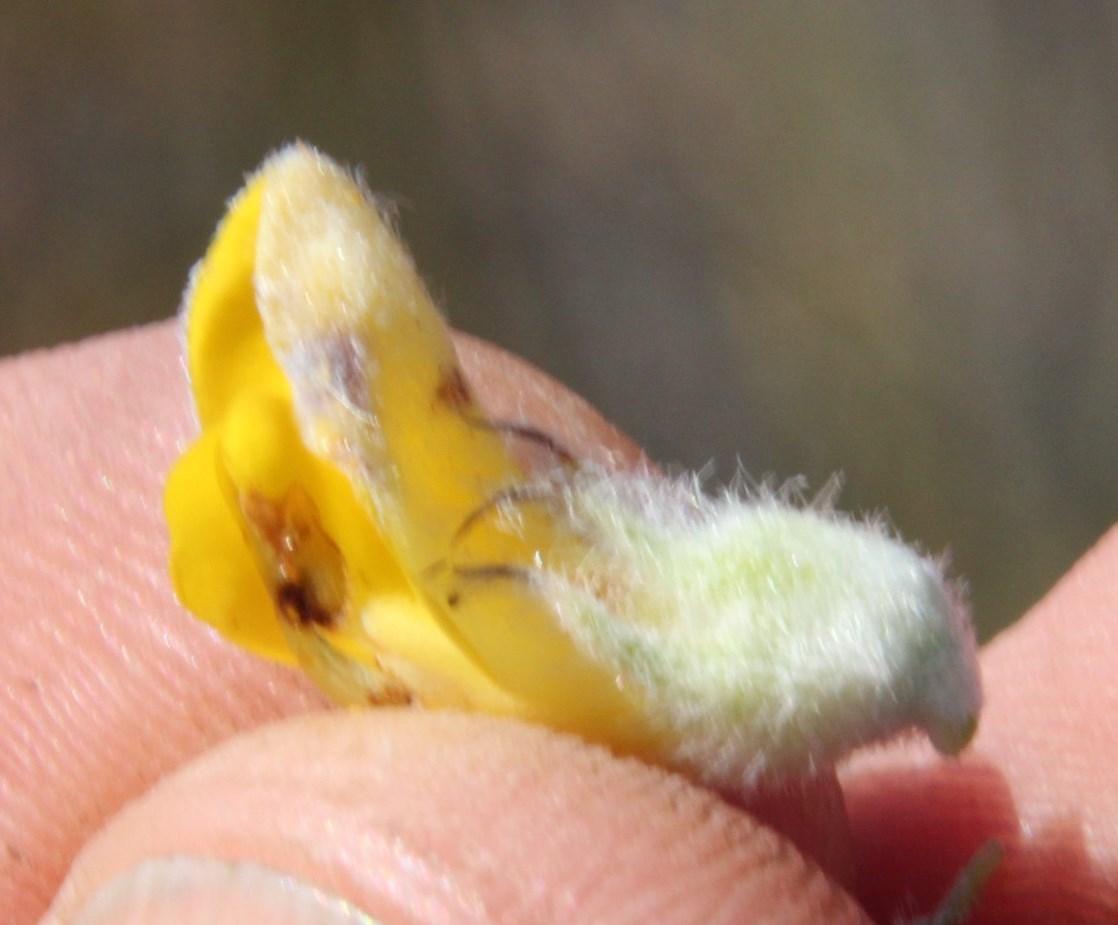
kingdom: Plantae
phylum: Tracheophyta
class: Magnoliopsida
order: Fabales
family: Fabaceae
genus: Aspalathus
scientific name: Aspalathus shawii
